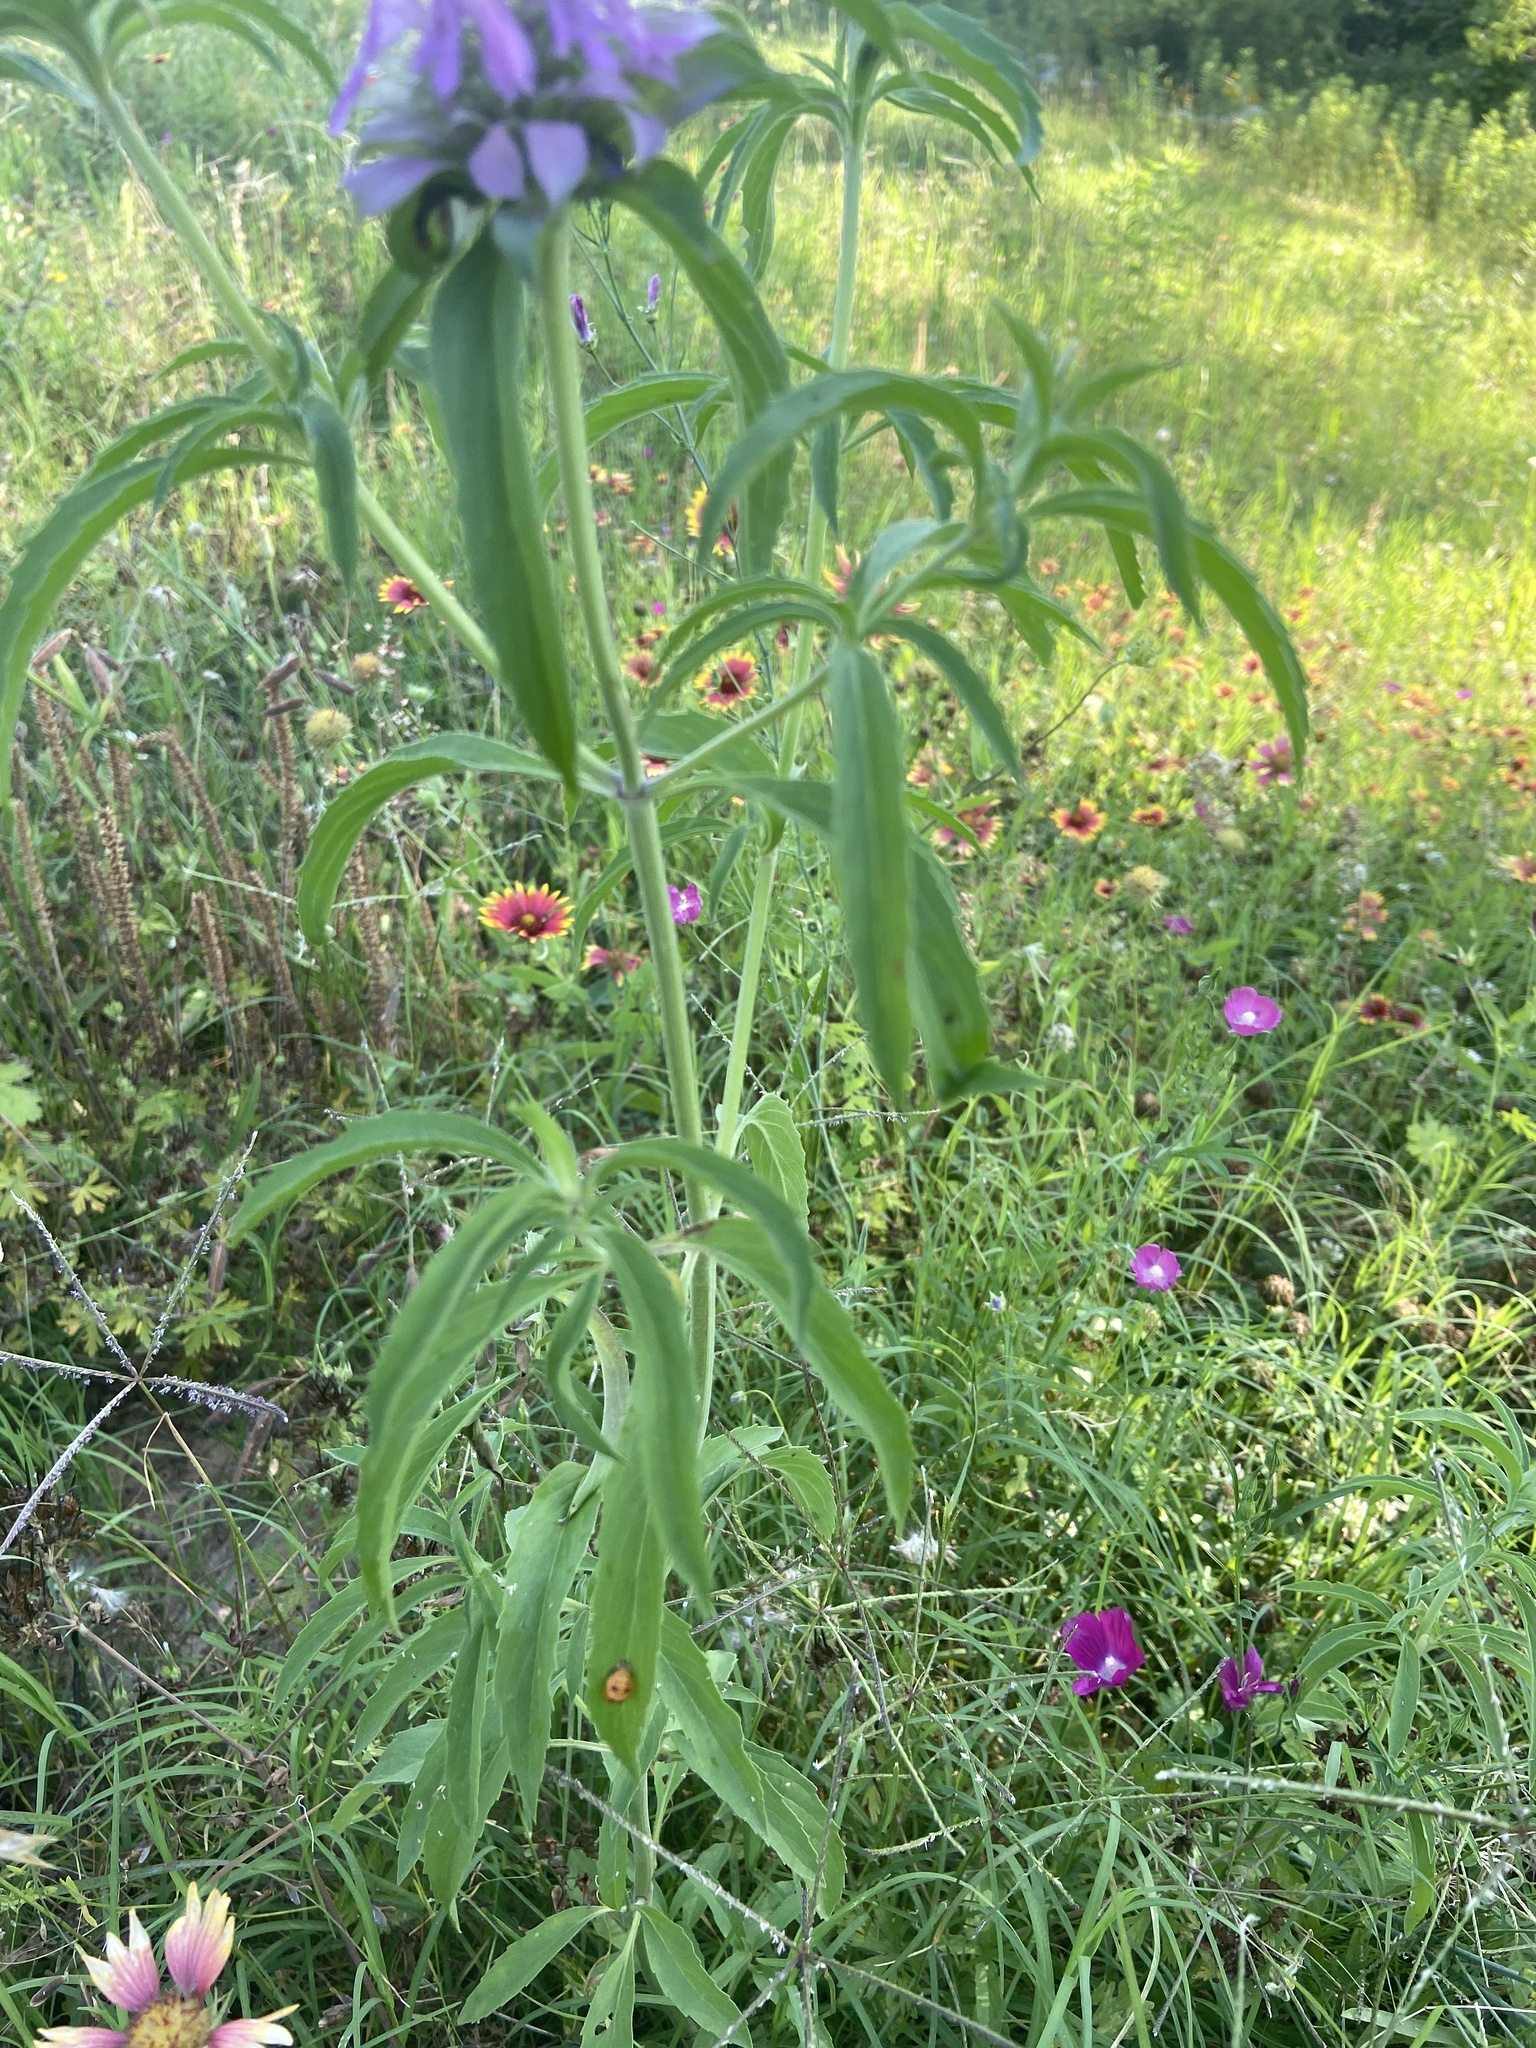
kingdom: Plantae
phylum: Tracheophyta
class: Magnoliopsida
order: Lamiales
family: Lamiaceae
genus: Monarda
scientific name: Monarda citriodora
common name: Lemon beebalm
